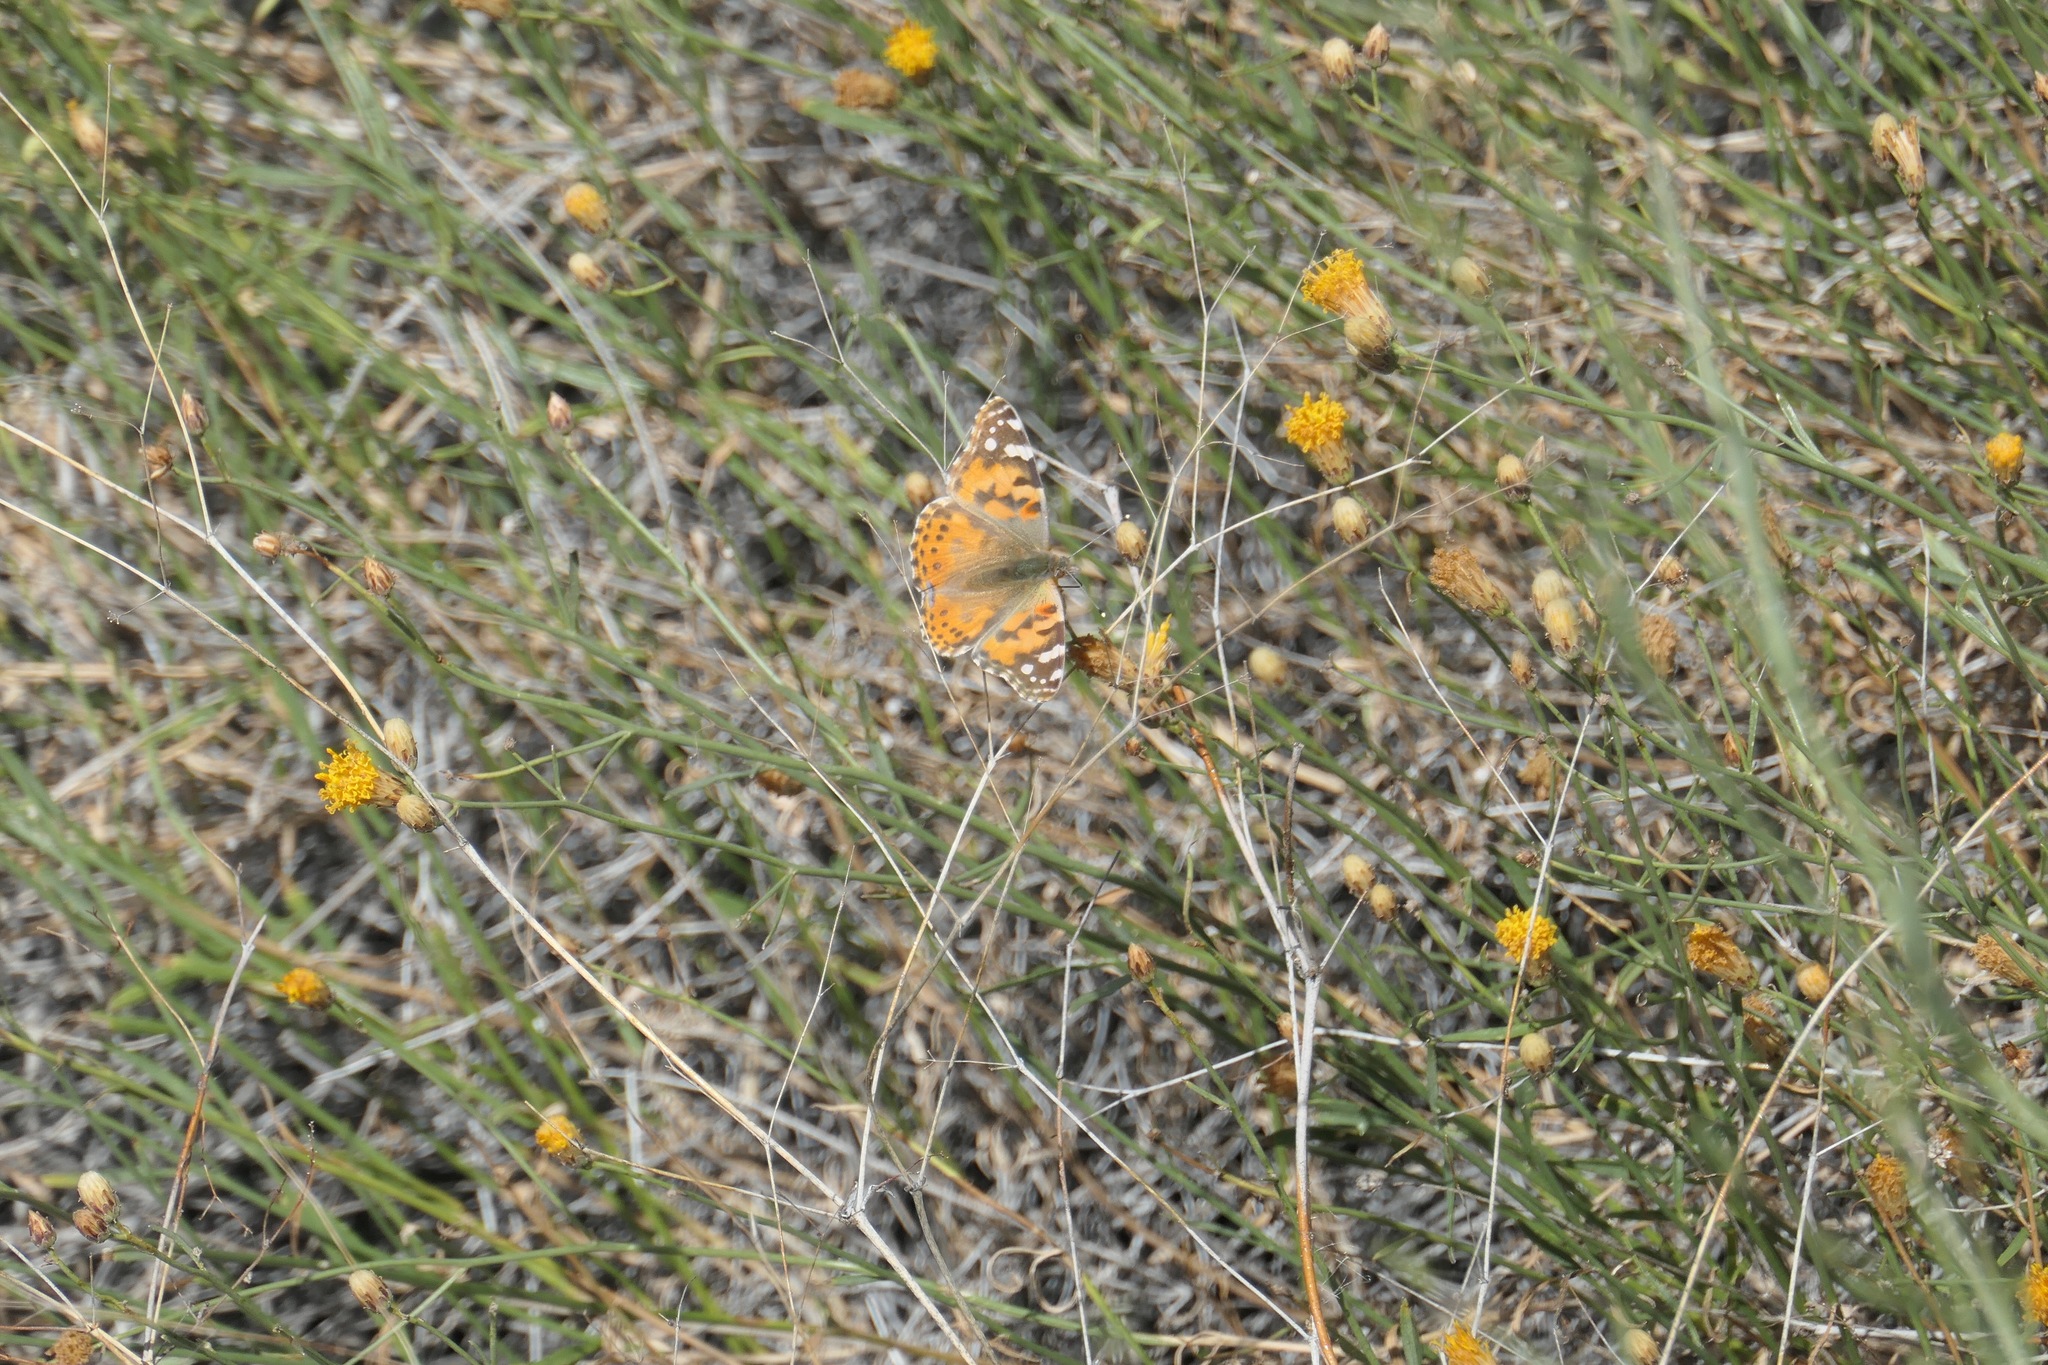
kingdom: Animalia
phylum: Arthropoda
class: Insecta
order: Lepidoptera
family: Nymphalidae
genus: Vanessa
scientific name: Vanessa cardui
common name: Painted lady
